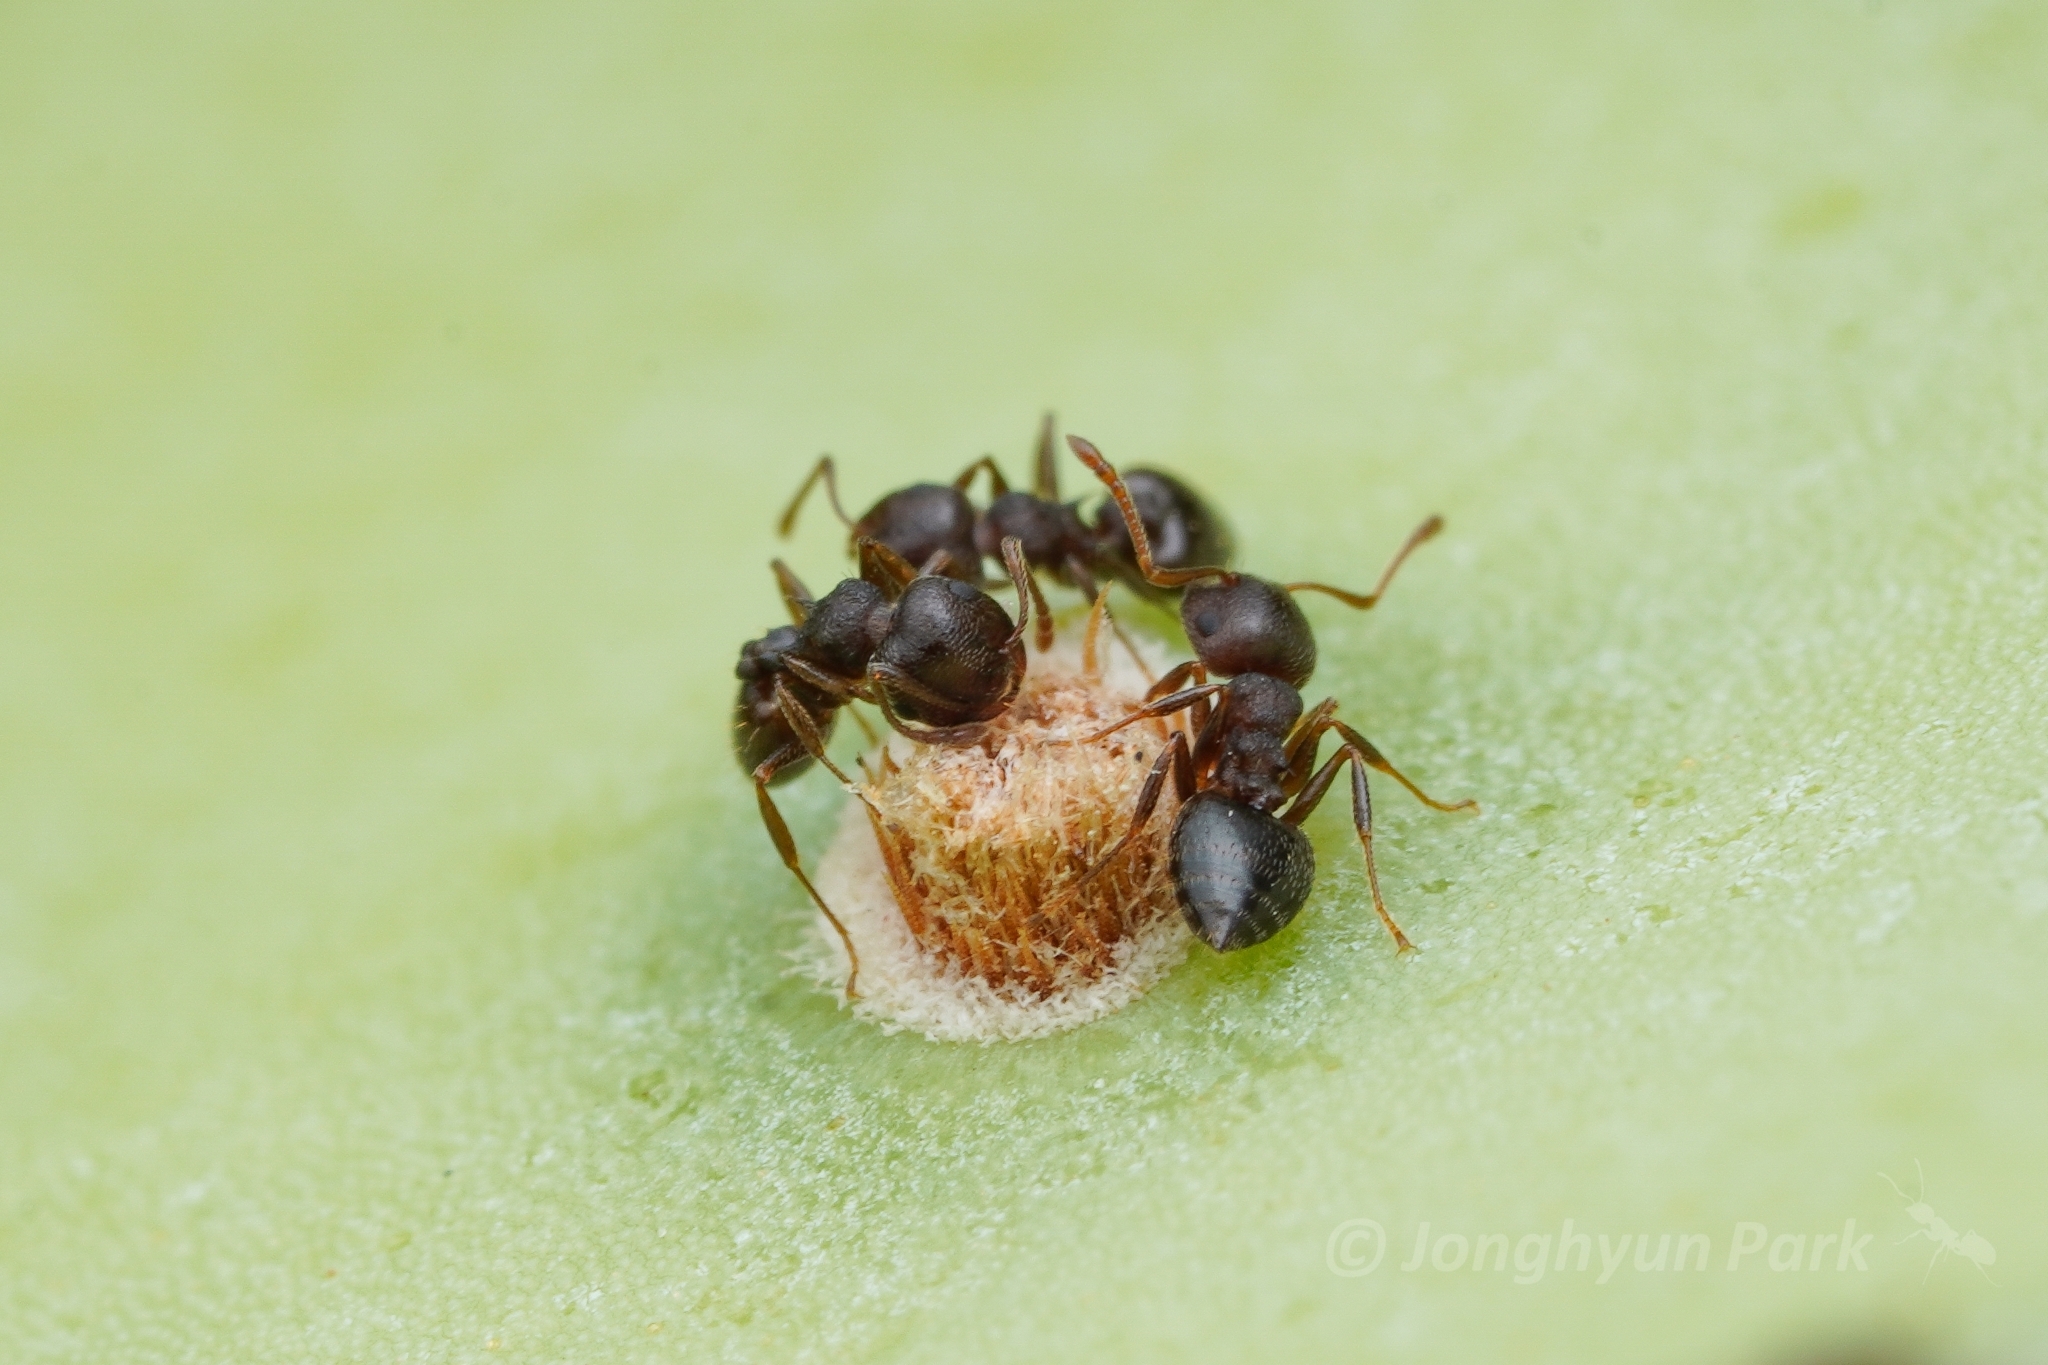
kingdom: Animalia
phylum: Arthropoda
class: Insecta
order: Hymenoptera
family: Formicidae
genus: Crematogaster
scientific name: Crematogaster dentinodis
